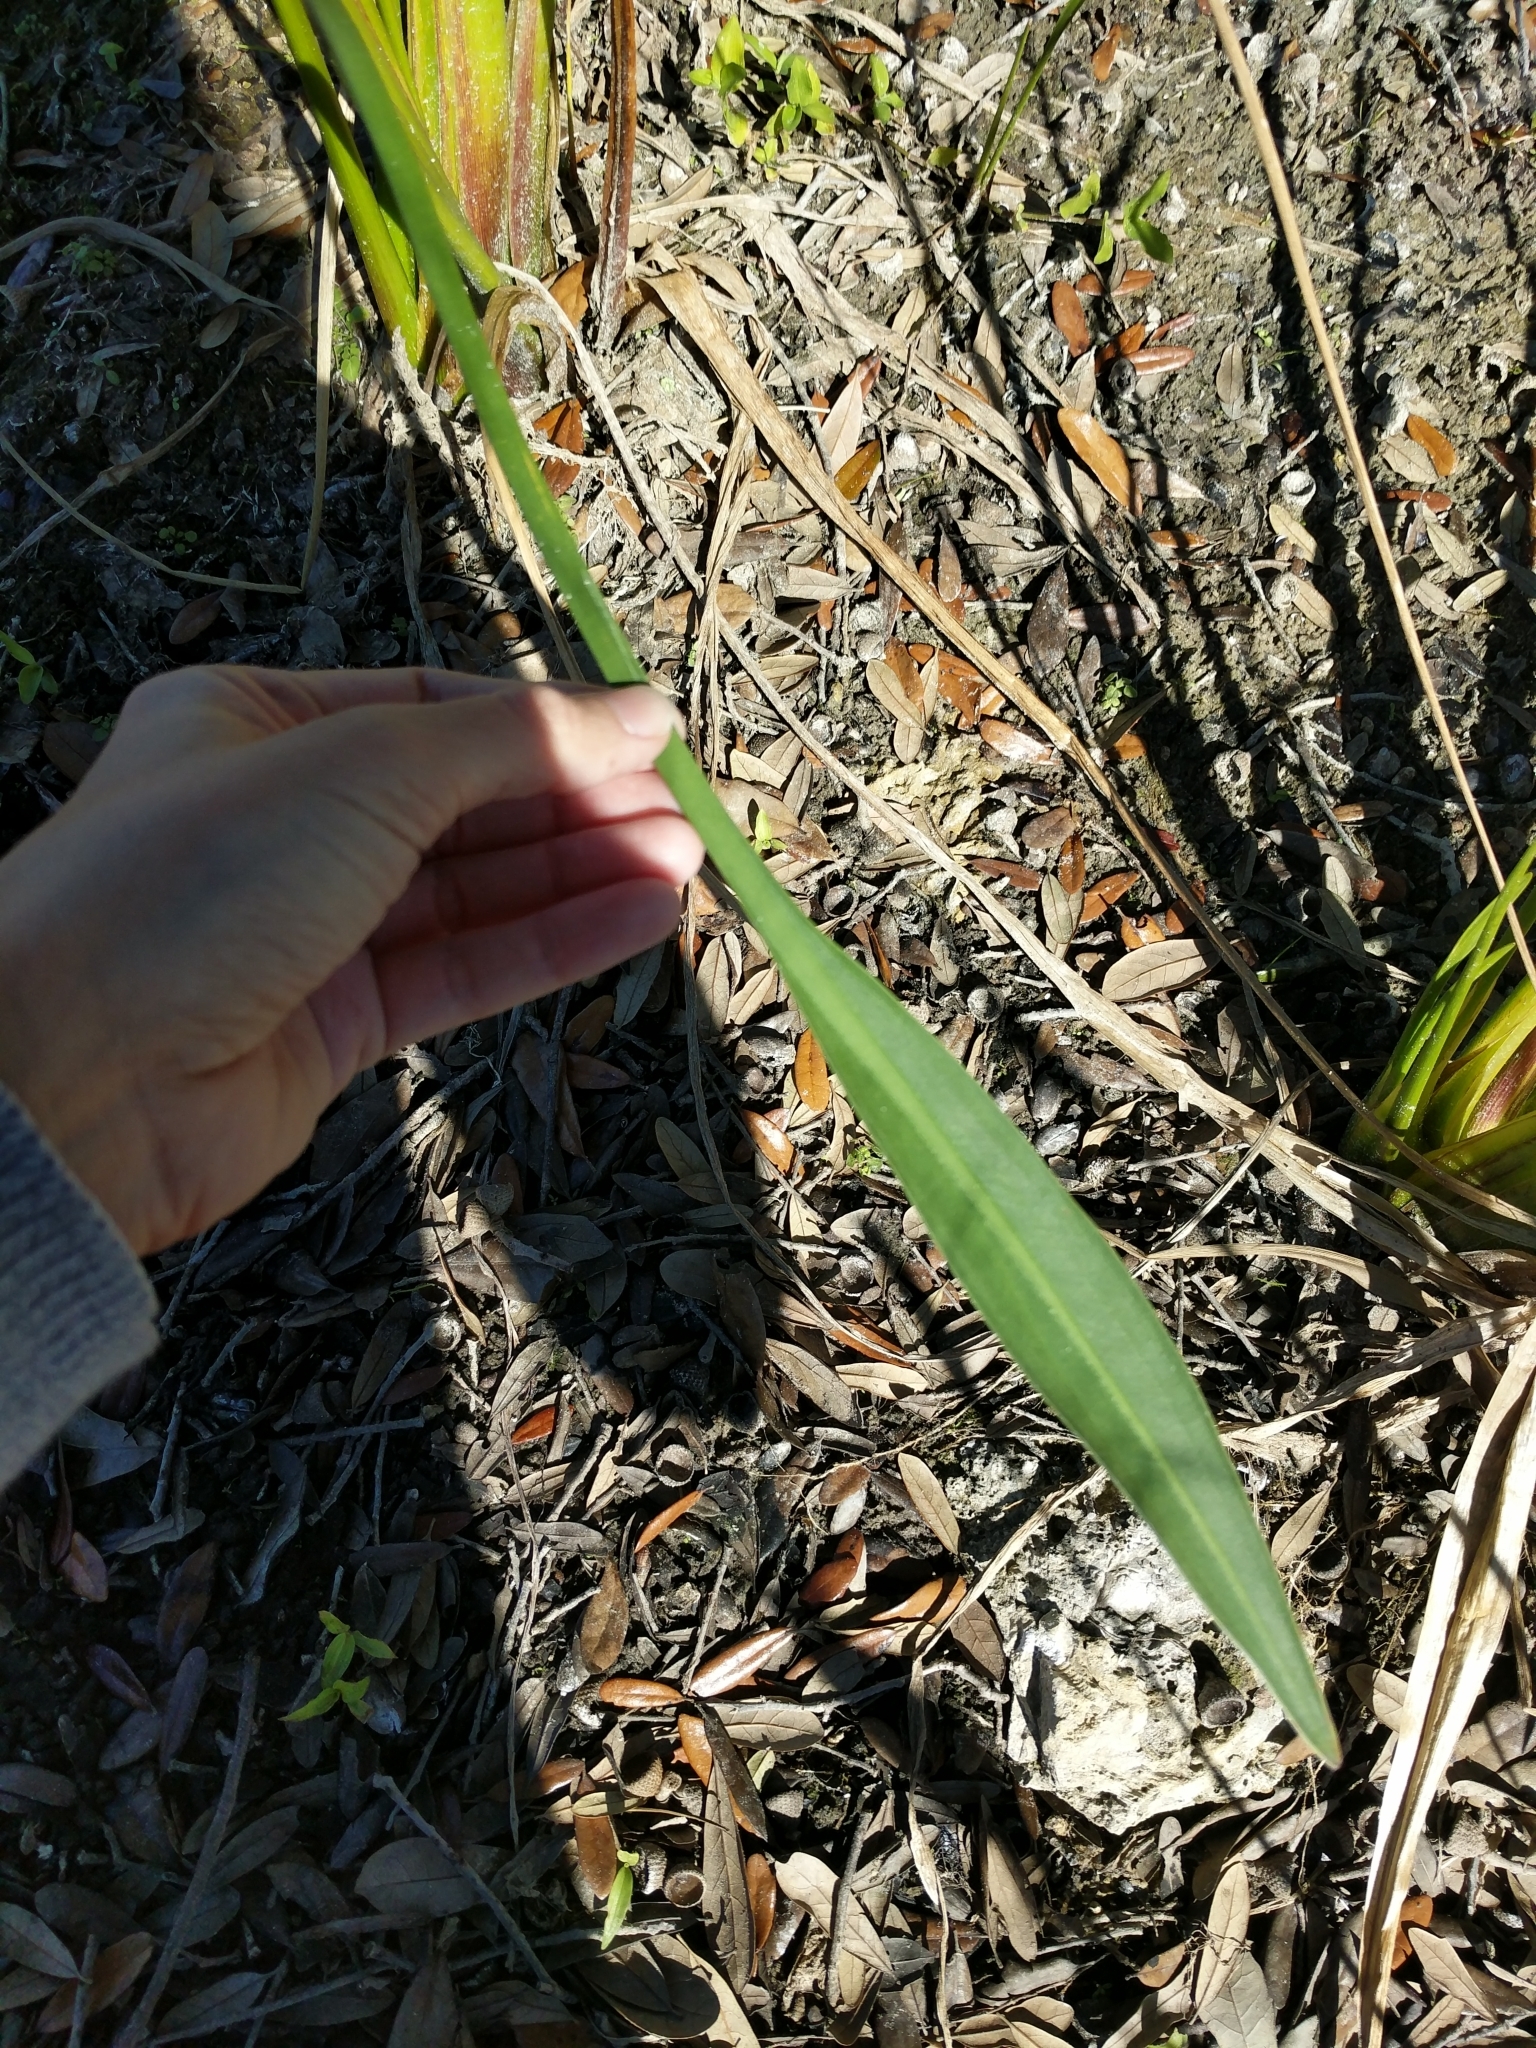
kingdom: Plantae
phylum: Tracheophyta
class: Liliopsida
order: Alismatales
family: Alismataceae
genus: Sagittaria
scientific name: Sagittaria lancifolia
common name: Lance-leaf arrowhead
